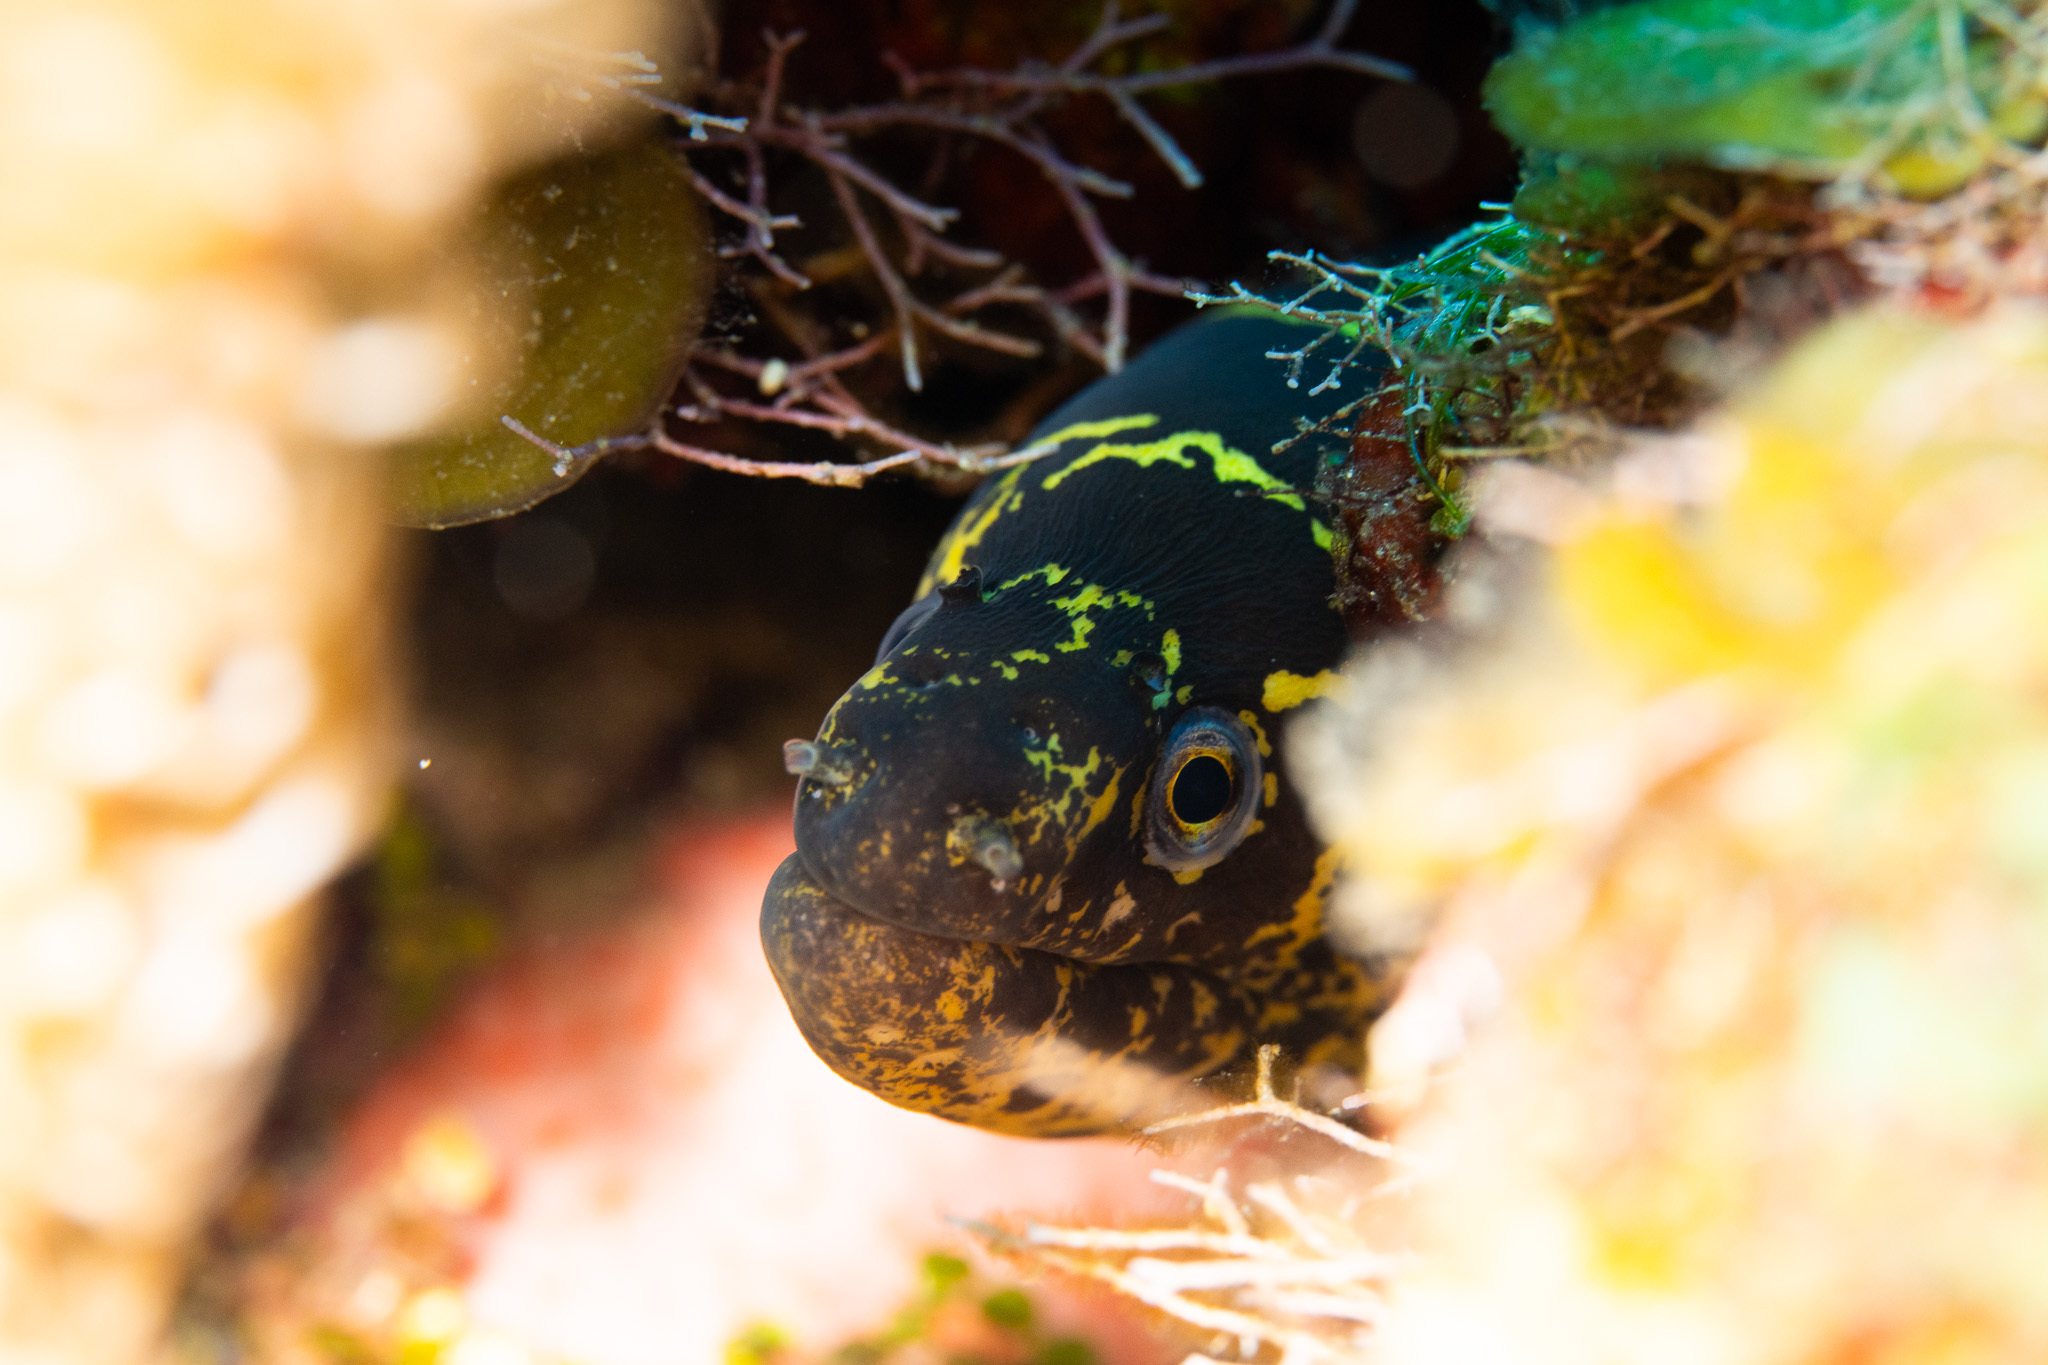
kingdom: Animalia
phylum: Chordata
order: Anguilliformes
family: Muraenidae
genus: Echidna
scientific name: Echidna catenata
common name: Chain moray
